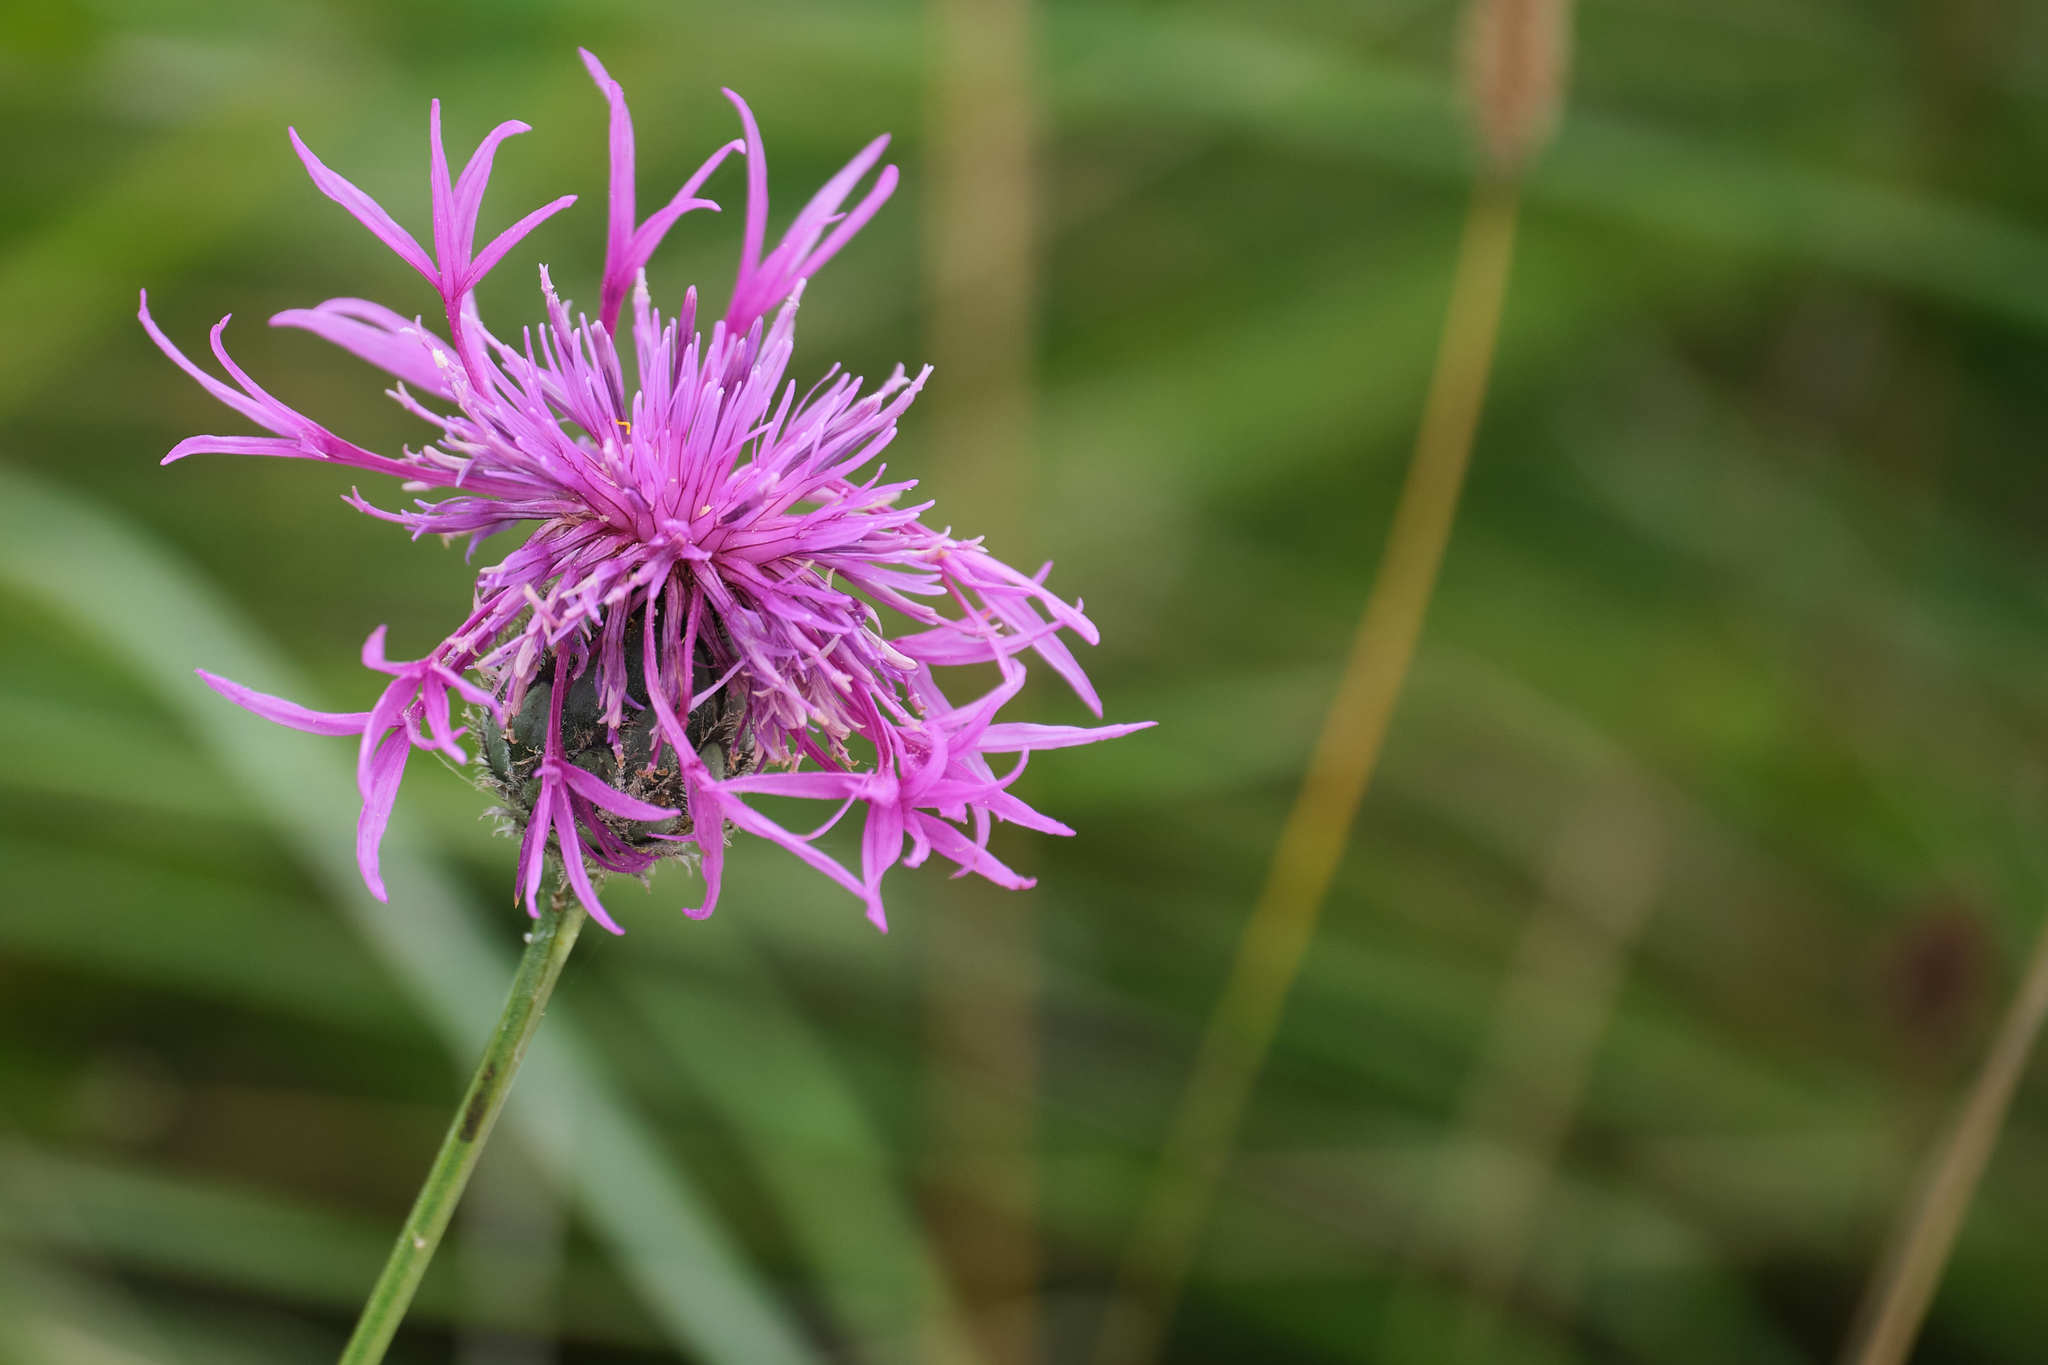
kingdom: Plantae
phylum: Tracheophyta
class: Magnoliopsida
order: Asterales
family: Asteraceae
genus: Centaurea
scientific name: Centaurea scabiosa
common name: Greater knapweed
